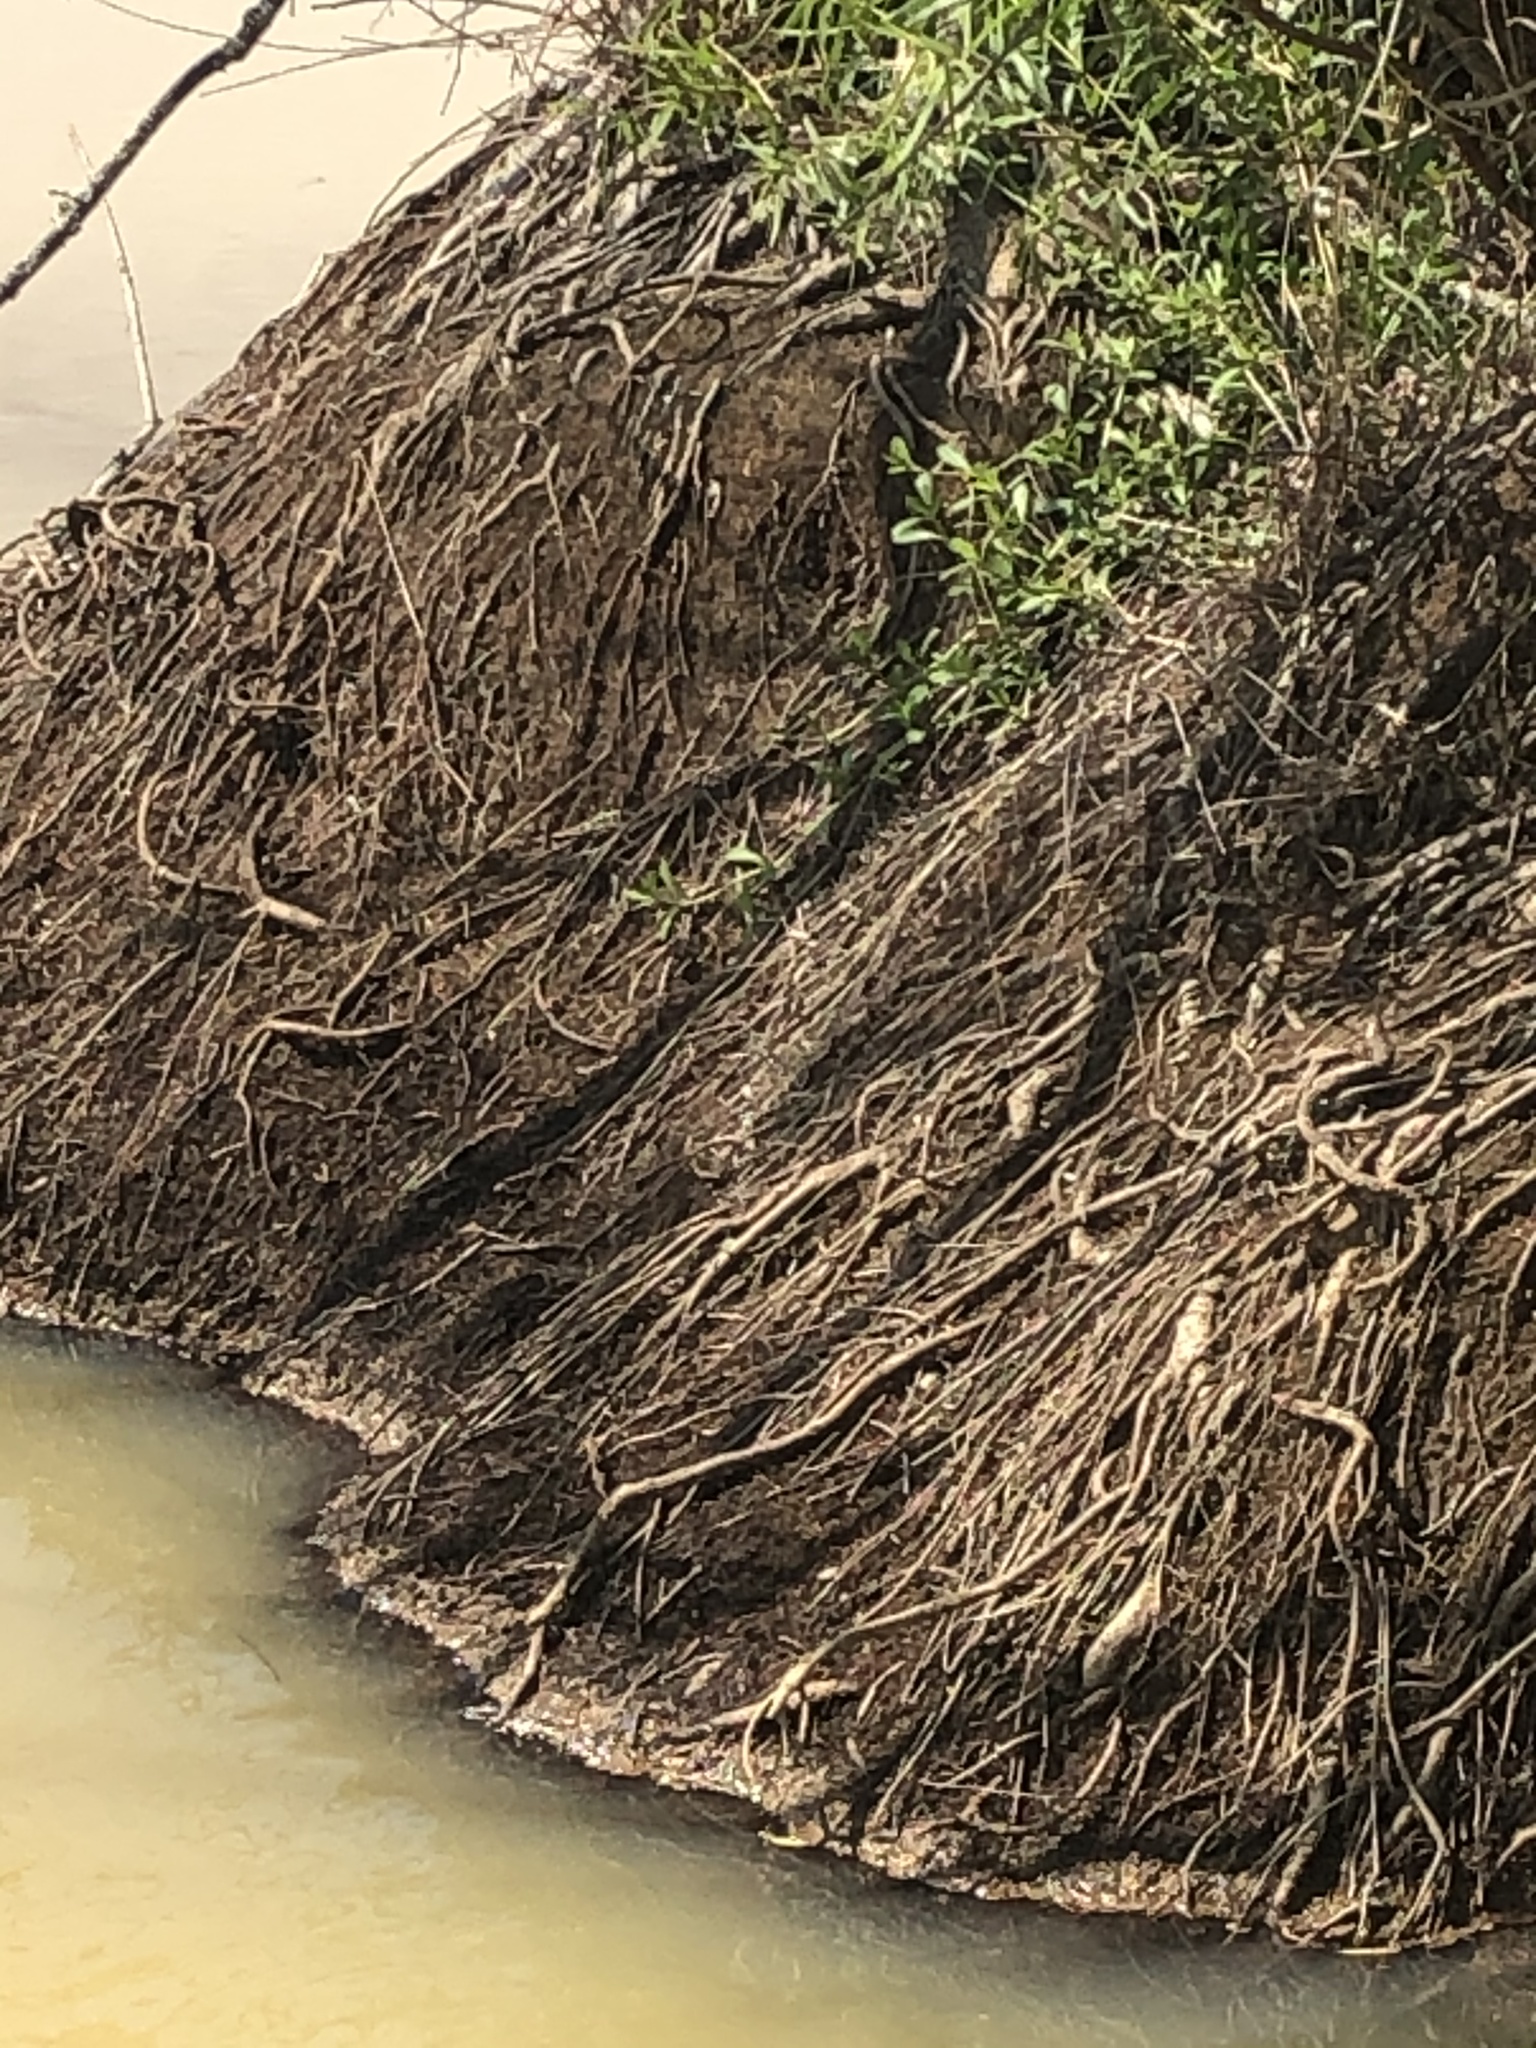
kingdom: Plantae
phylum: Tracheophyta
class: Magnoliopsida
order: Malpighiales
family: Salicaceae
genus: Salix
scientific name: Salix nigra
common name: Black willow
